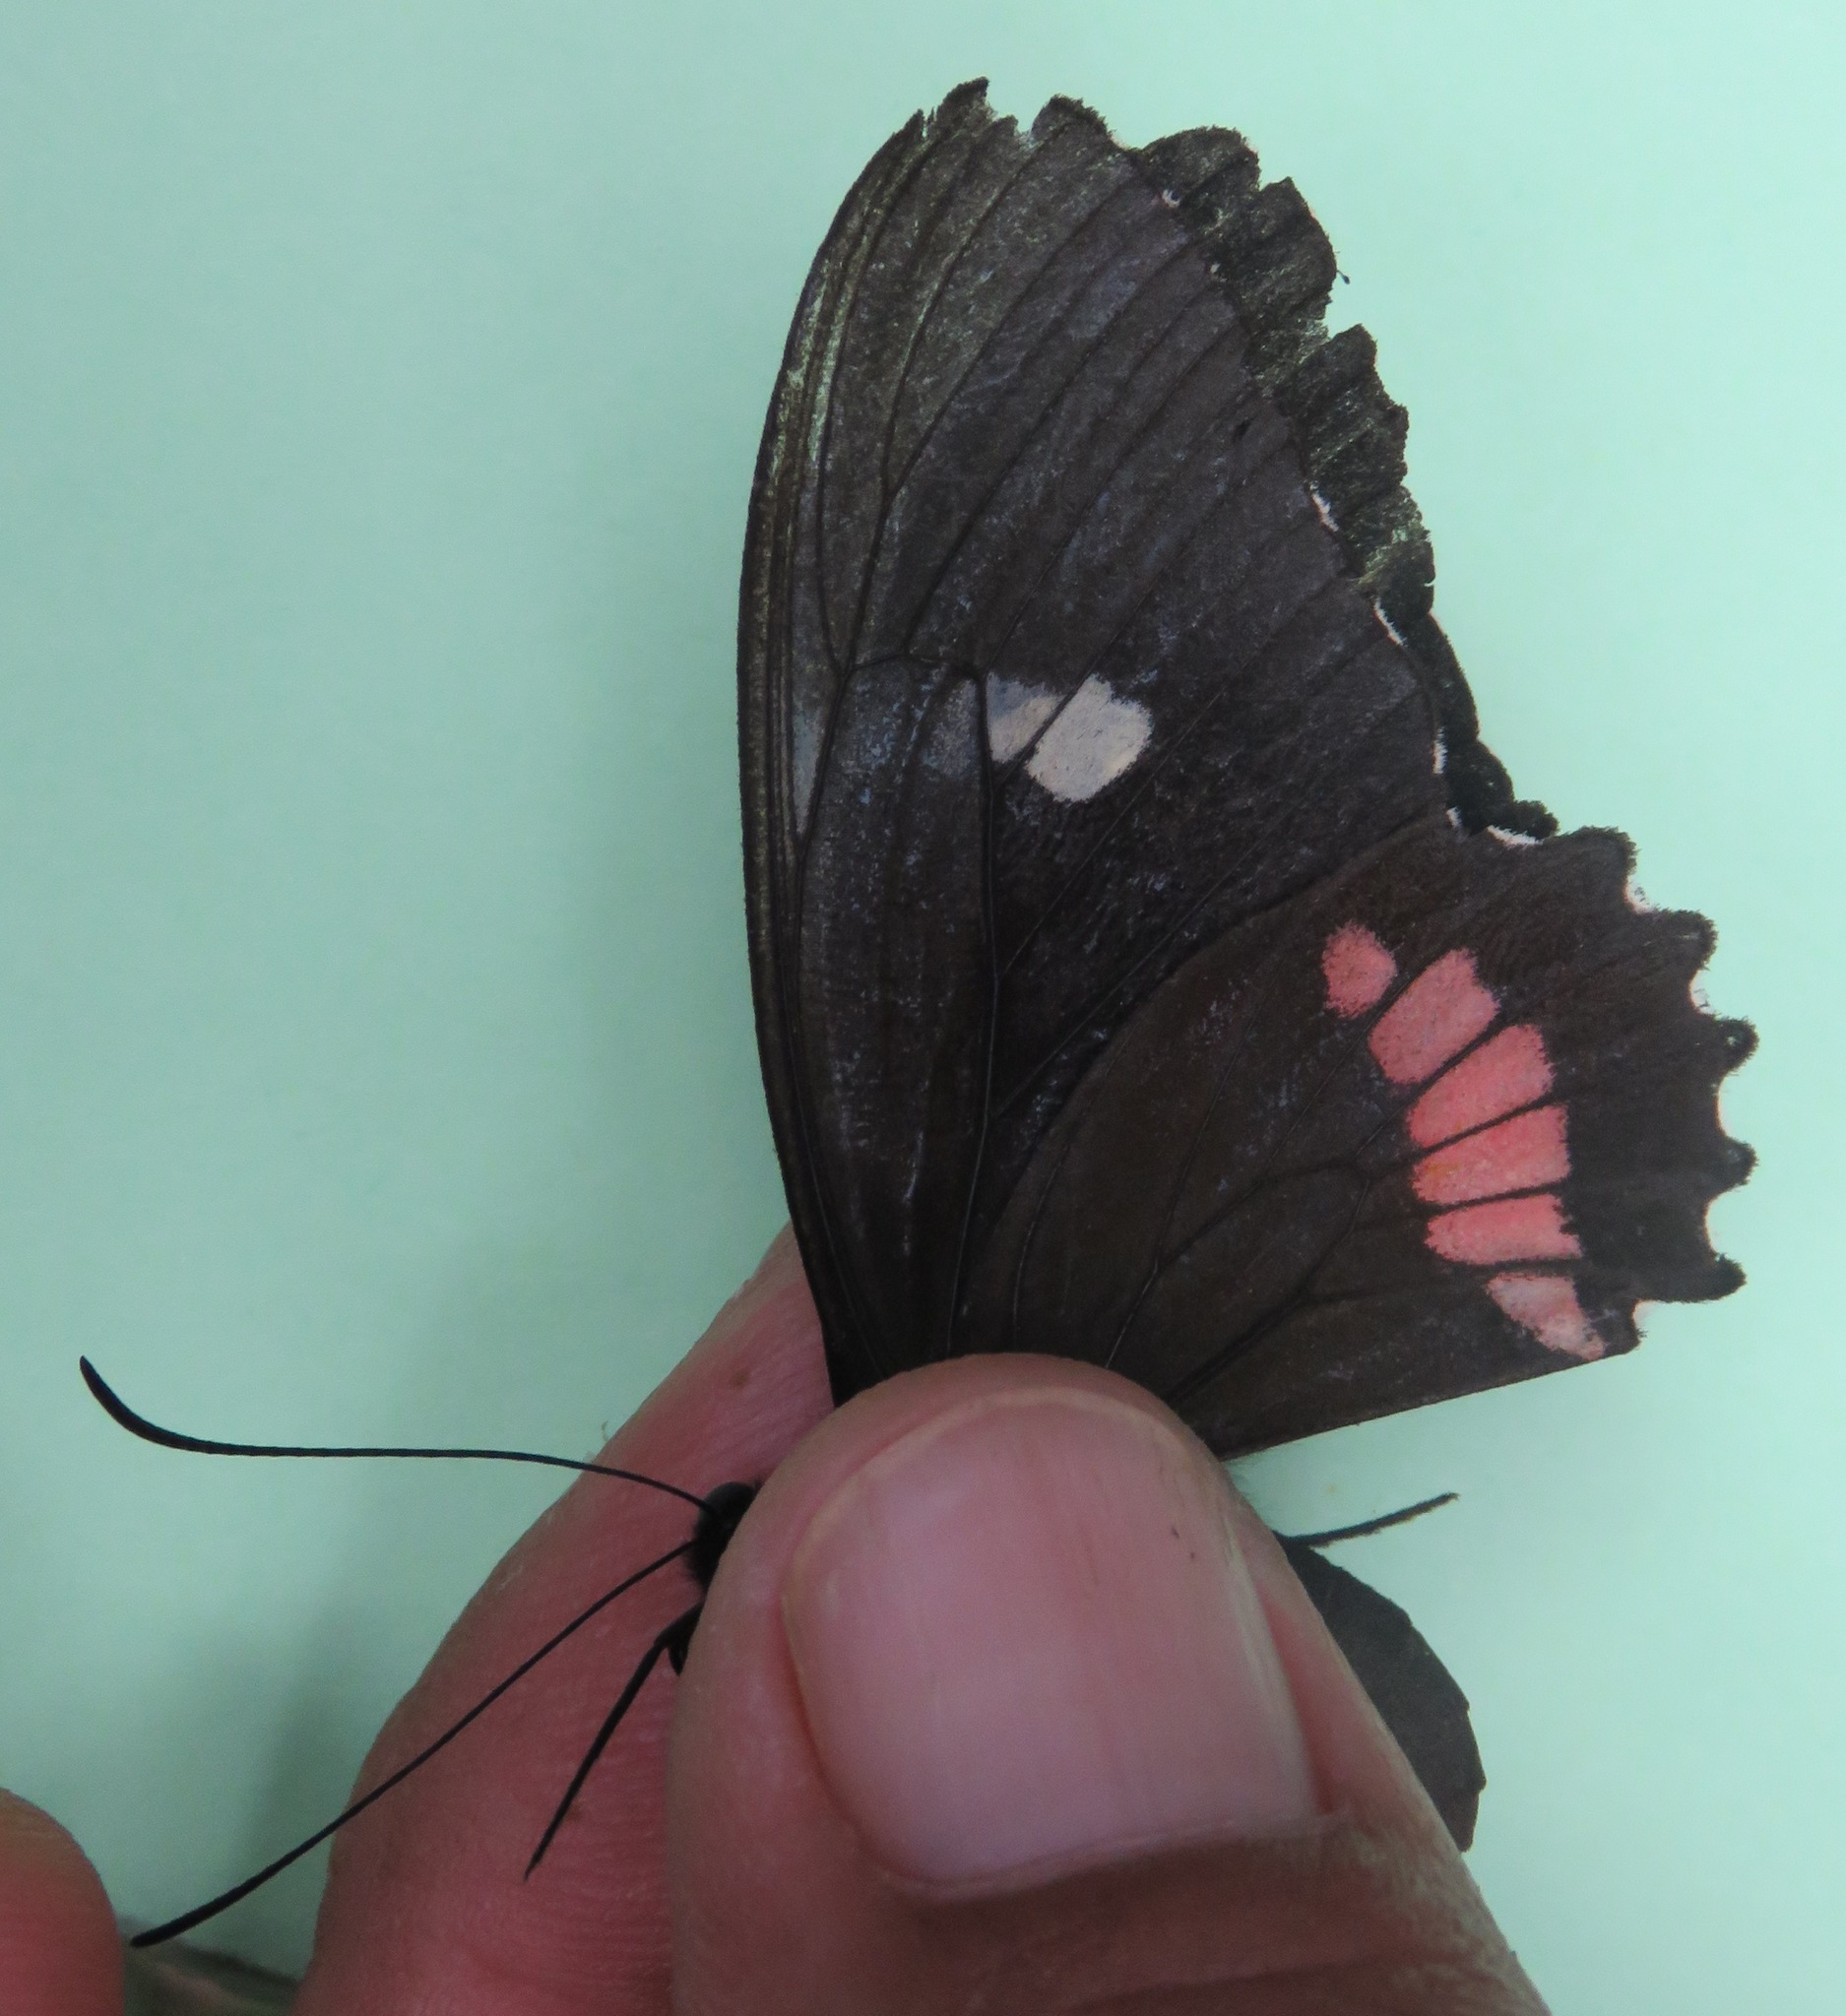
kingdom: Animalia
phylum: Arthropoda
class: Insecta
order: Lepidoptera
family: Papilionidae
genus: Parides
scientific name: Parides iphidamas
